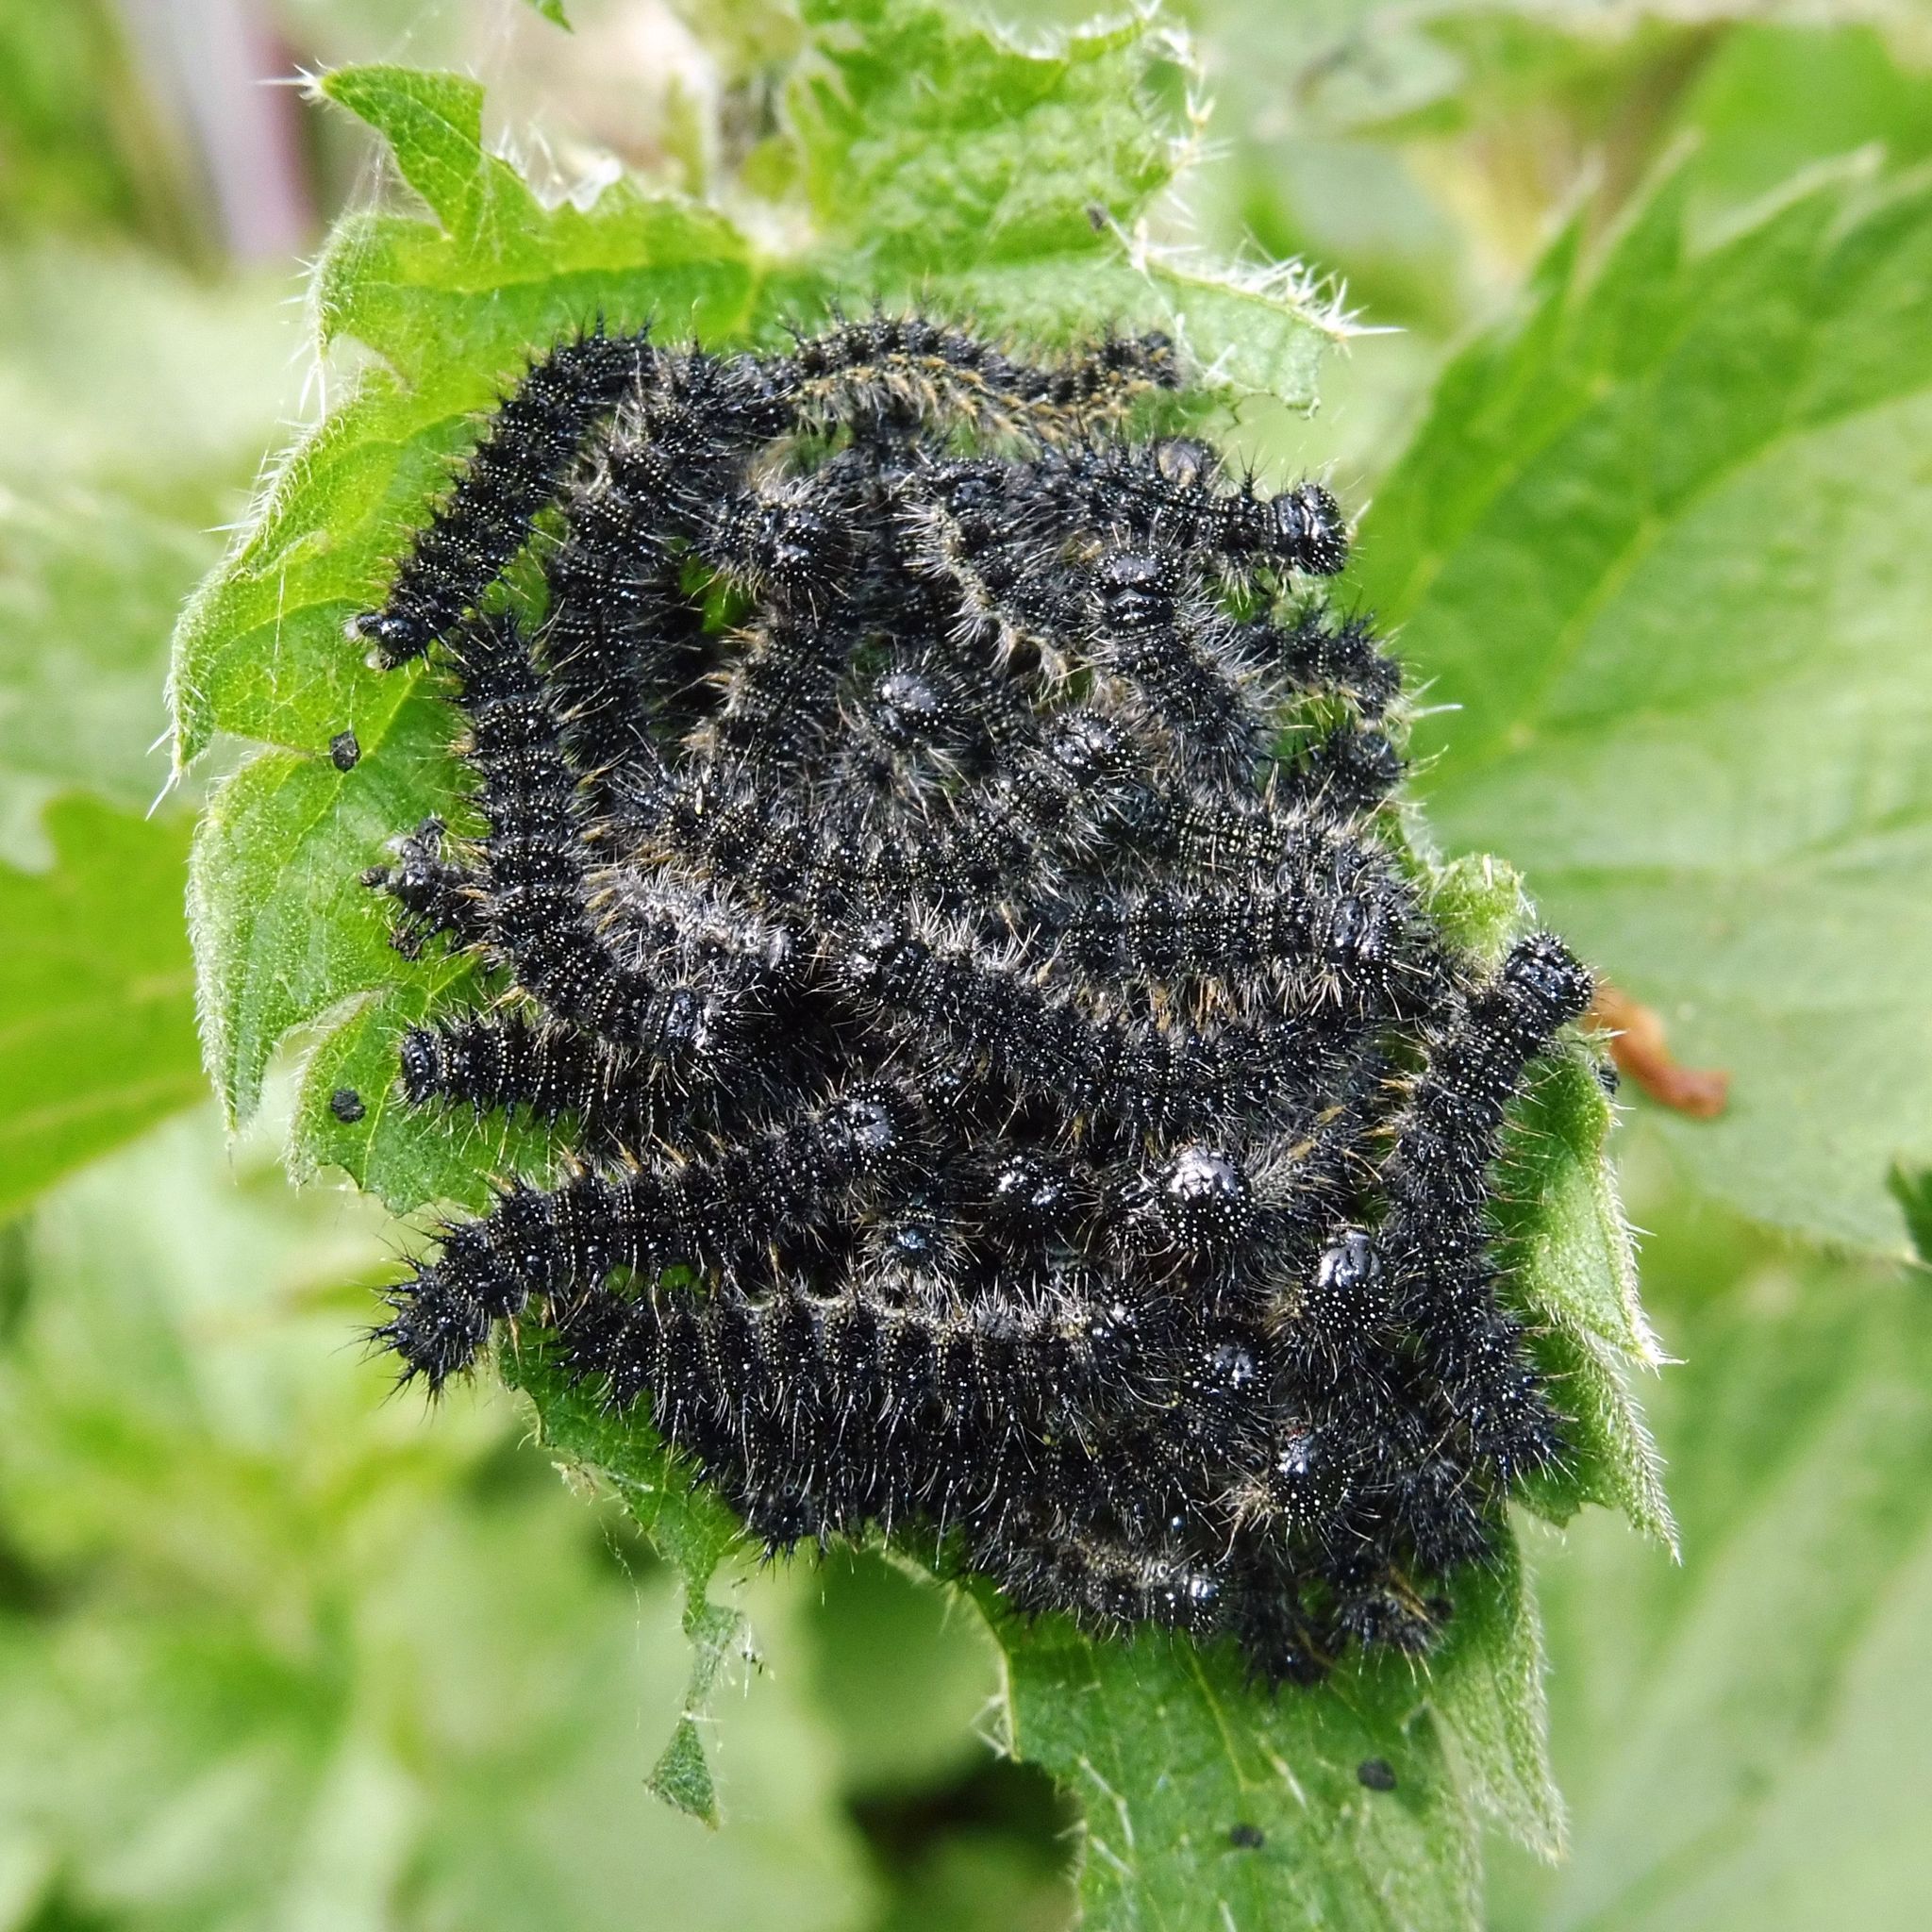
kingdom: Animalia
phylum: Arthropoda
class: Insecta
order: Lepidoptera
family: Nymphalidae
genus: Aglais
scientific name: Aglais urticae
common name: Small tortoiseshell
